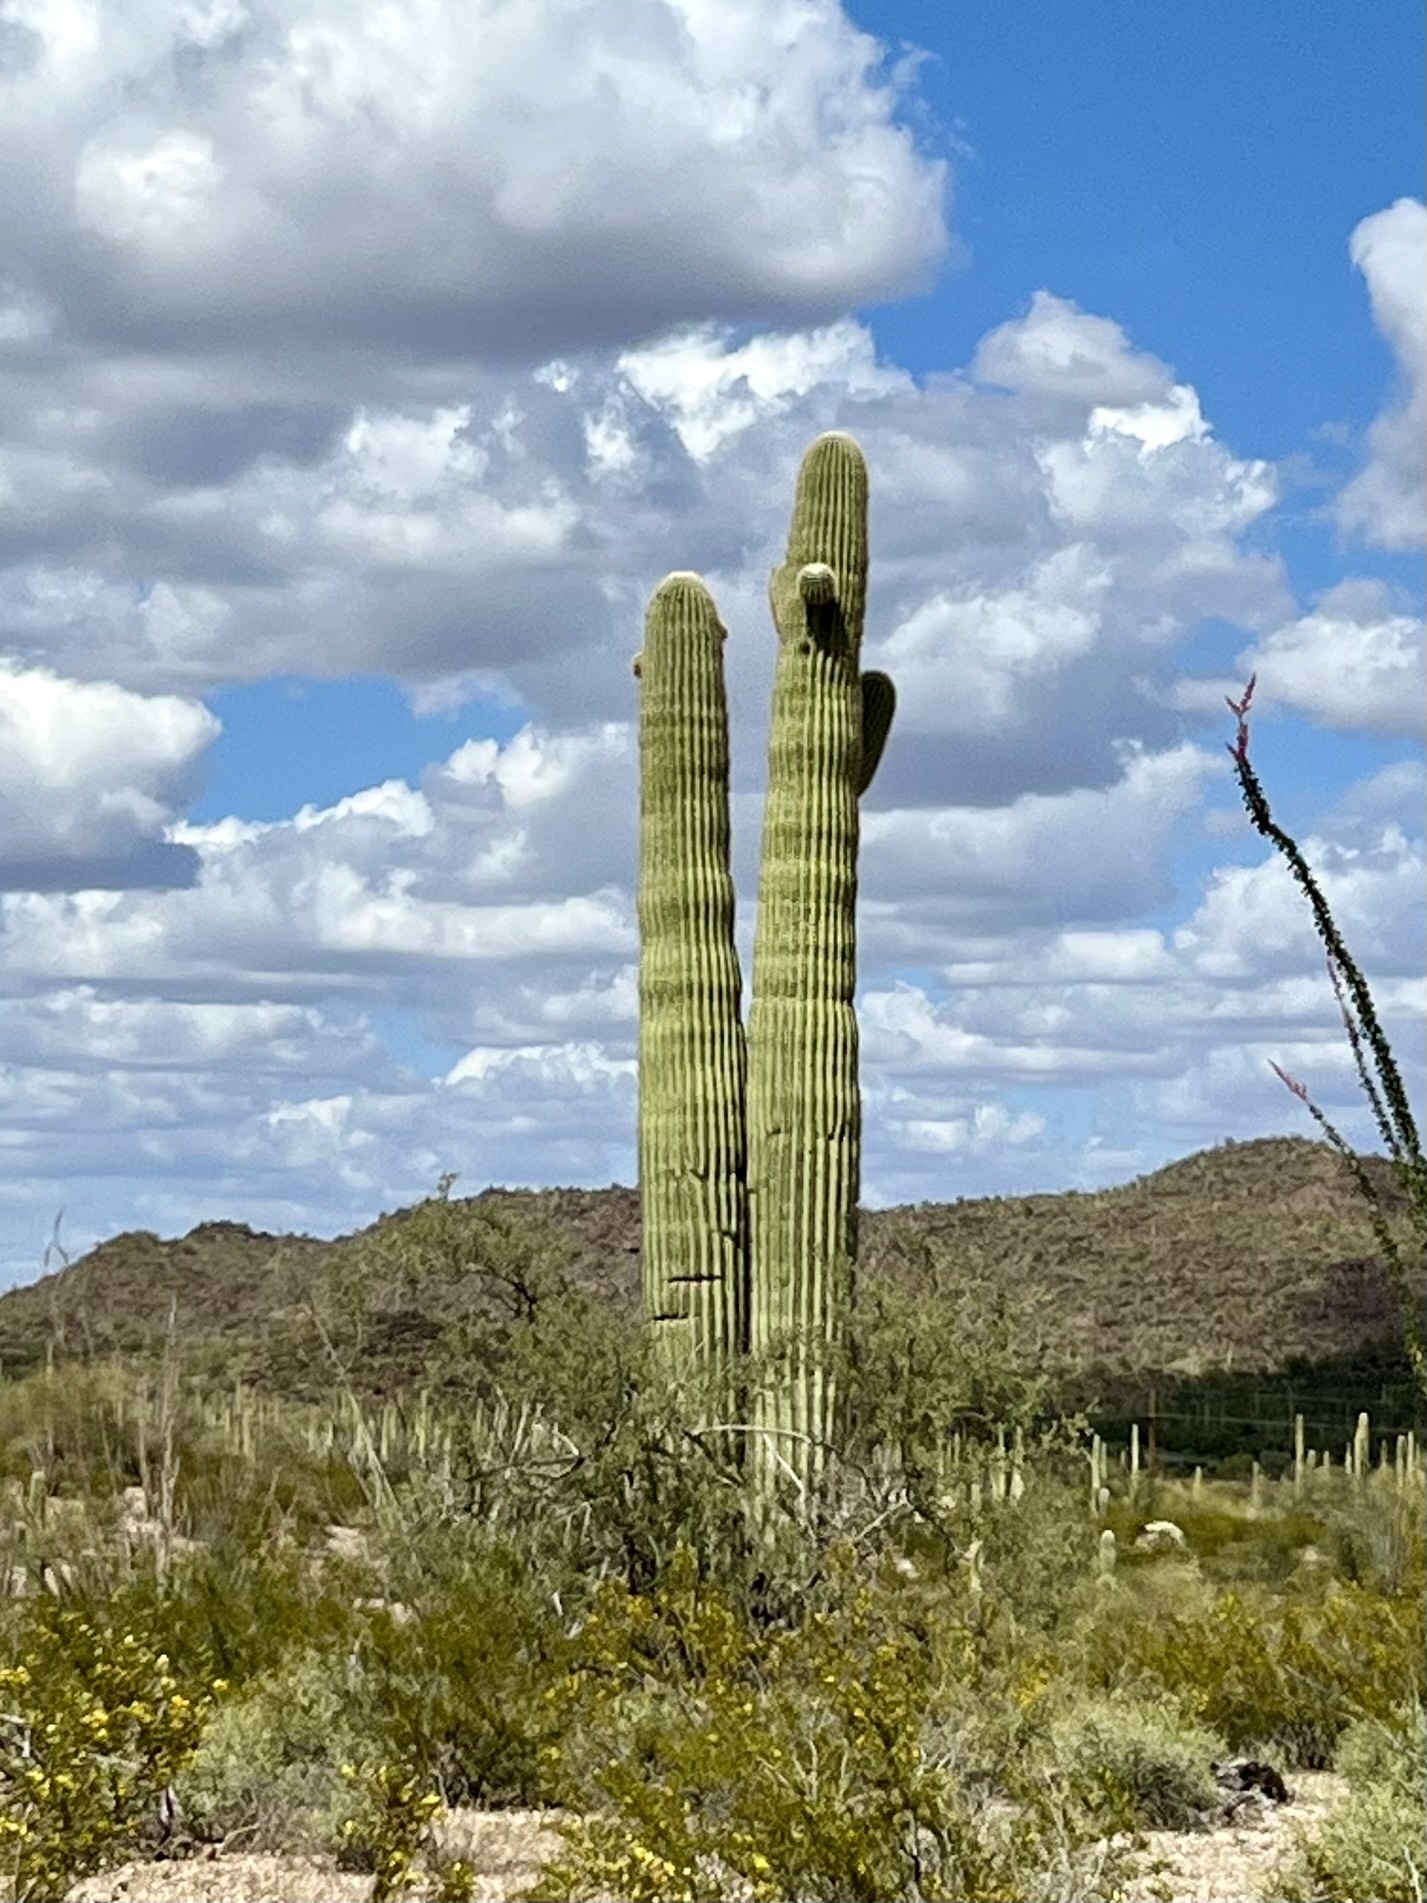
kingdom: Plantae
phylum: Tracheophyta
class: Magnoliopsida
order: Caryophyllales
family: Cactaceae
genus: Carnegiea
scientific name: Carnegiea gigantea
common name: Saguaro
